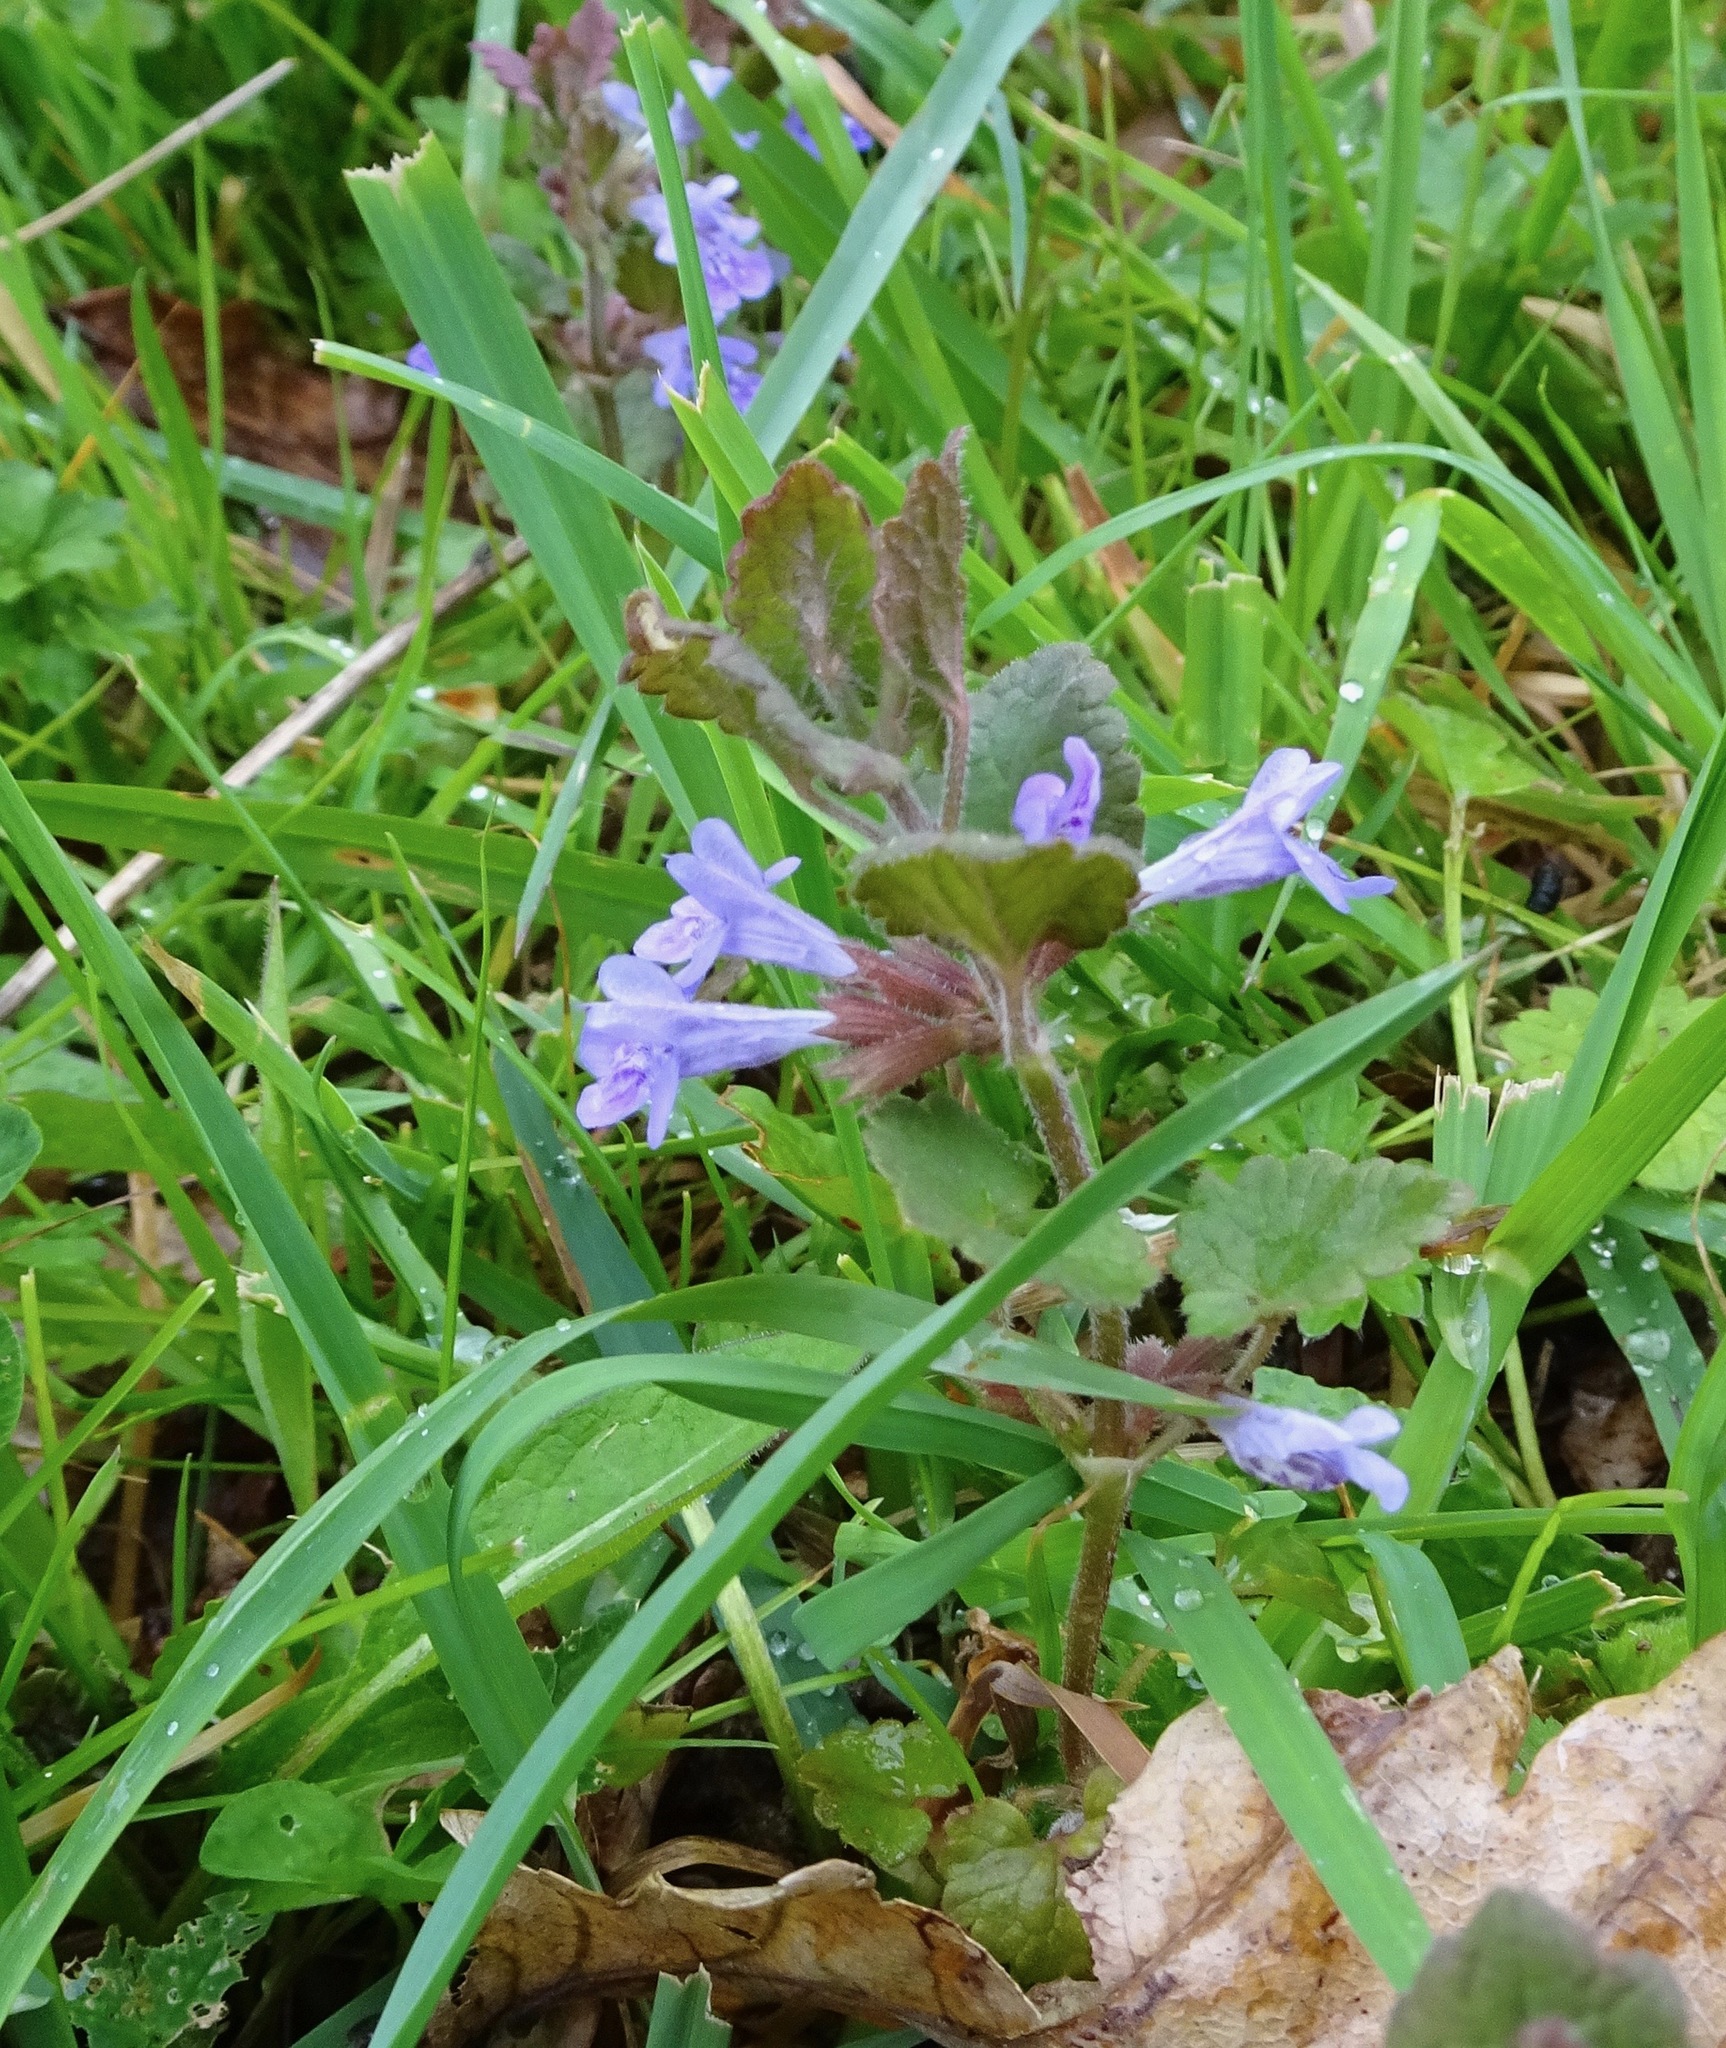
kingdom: Plantae
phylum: Tracheophyta
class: Magnoliopsida
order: Lamiales
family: Lamiaceae
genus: Glechoma
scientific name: Glechoma hederacea
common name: Ground ivy
